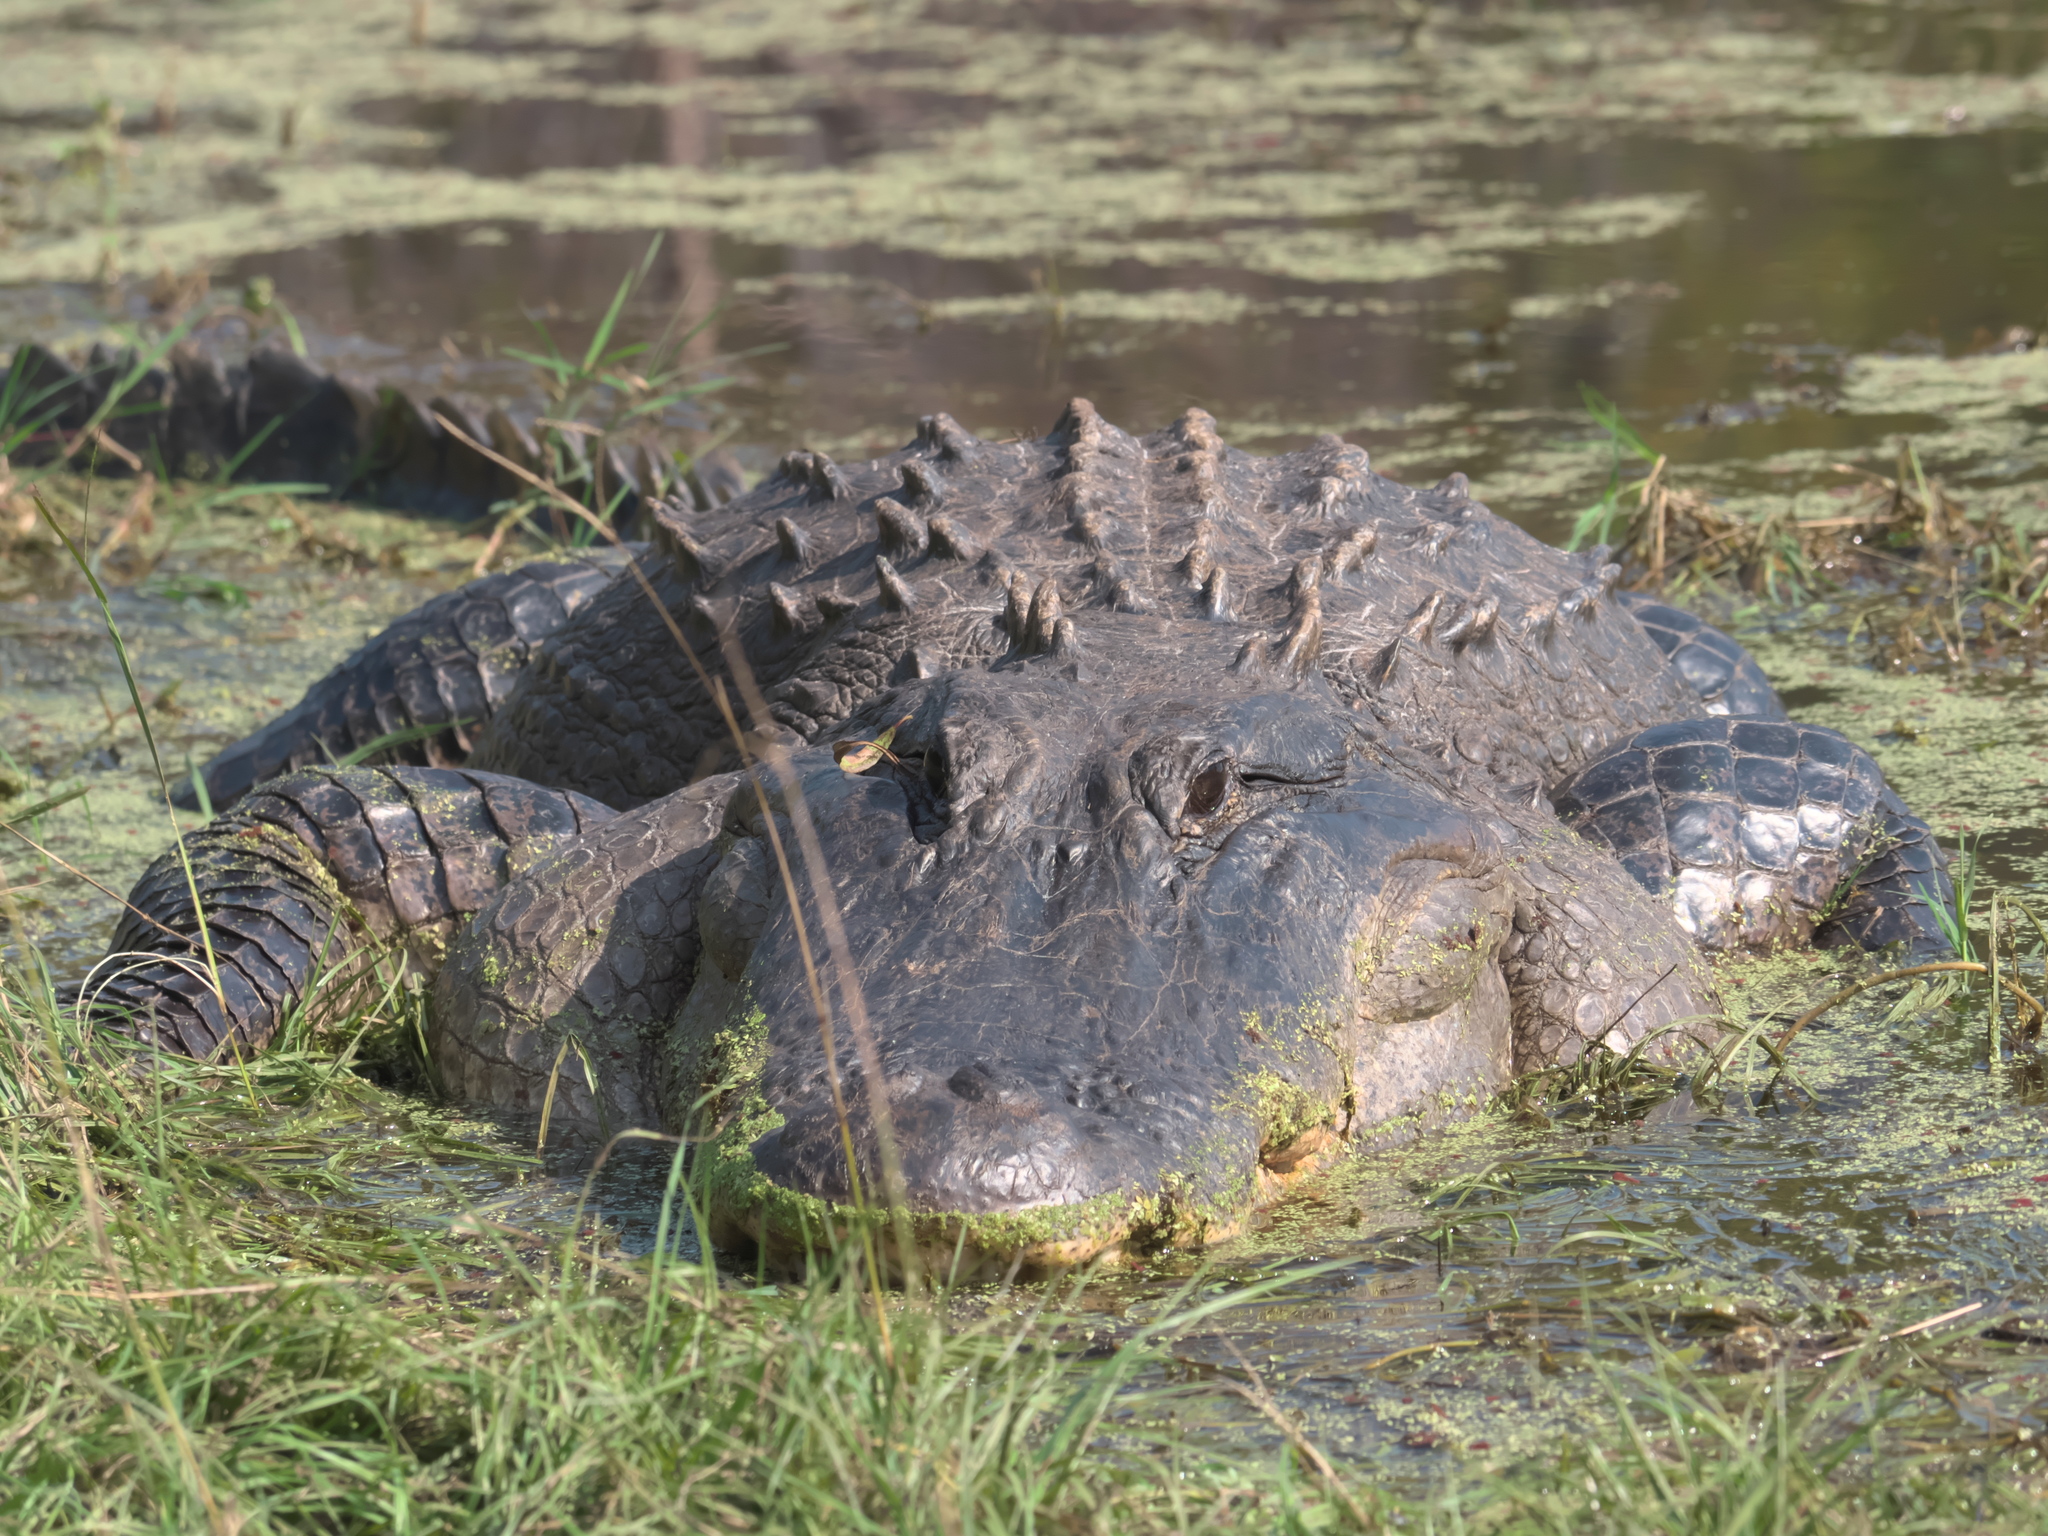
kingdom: Animalia
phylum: Chordata
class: Crocodylia
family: Alligatoridae
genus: Alligator
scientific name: Alligator mississippiensis
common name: American alligator
